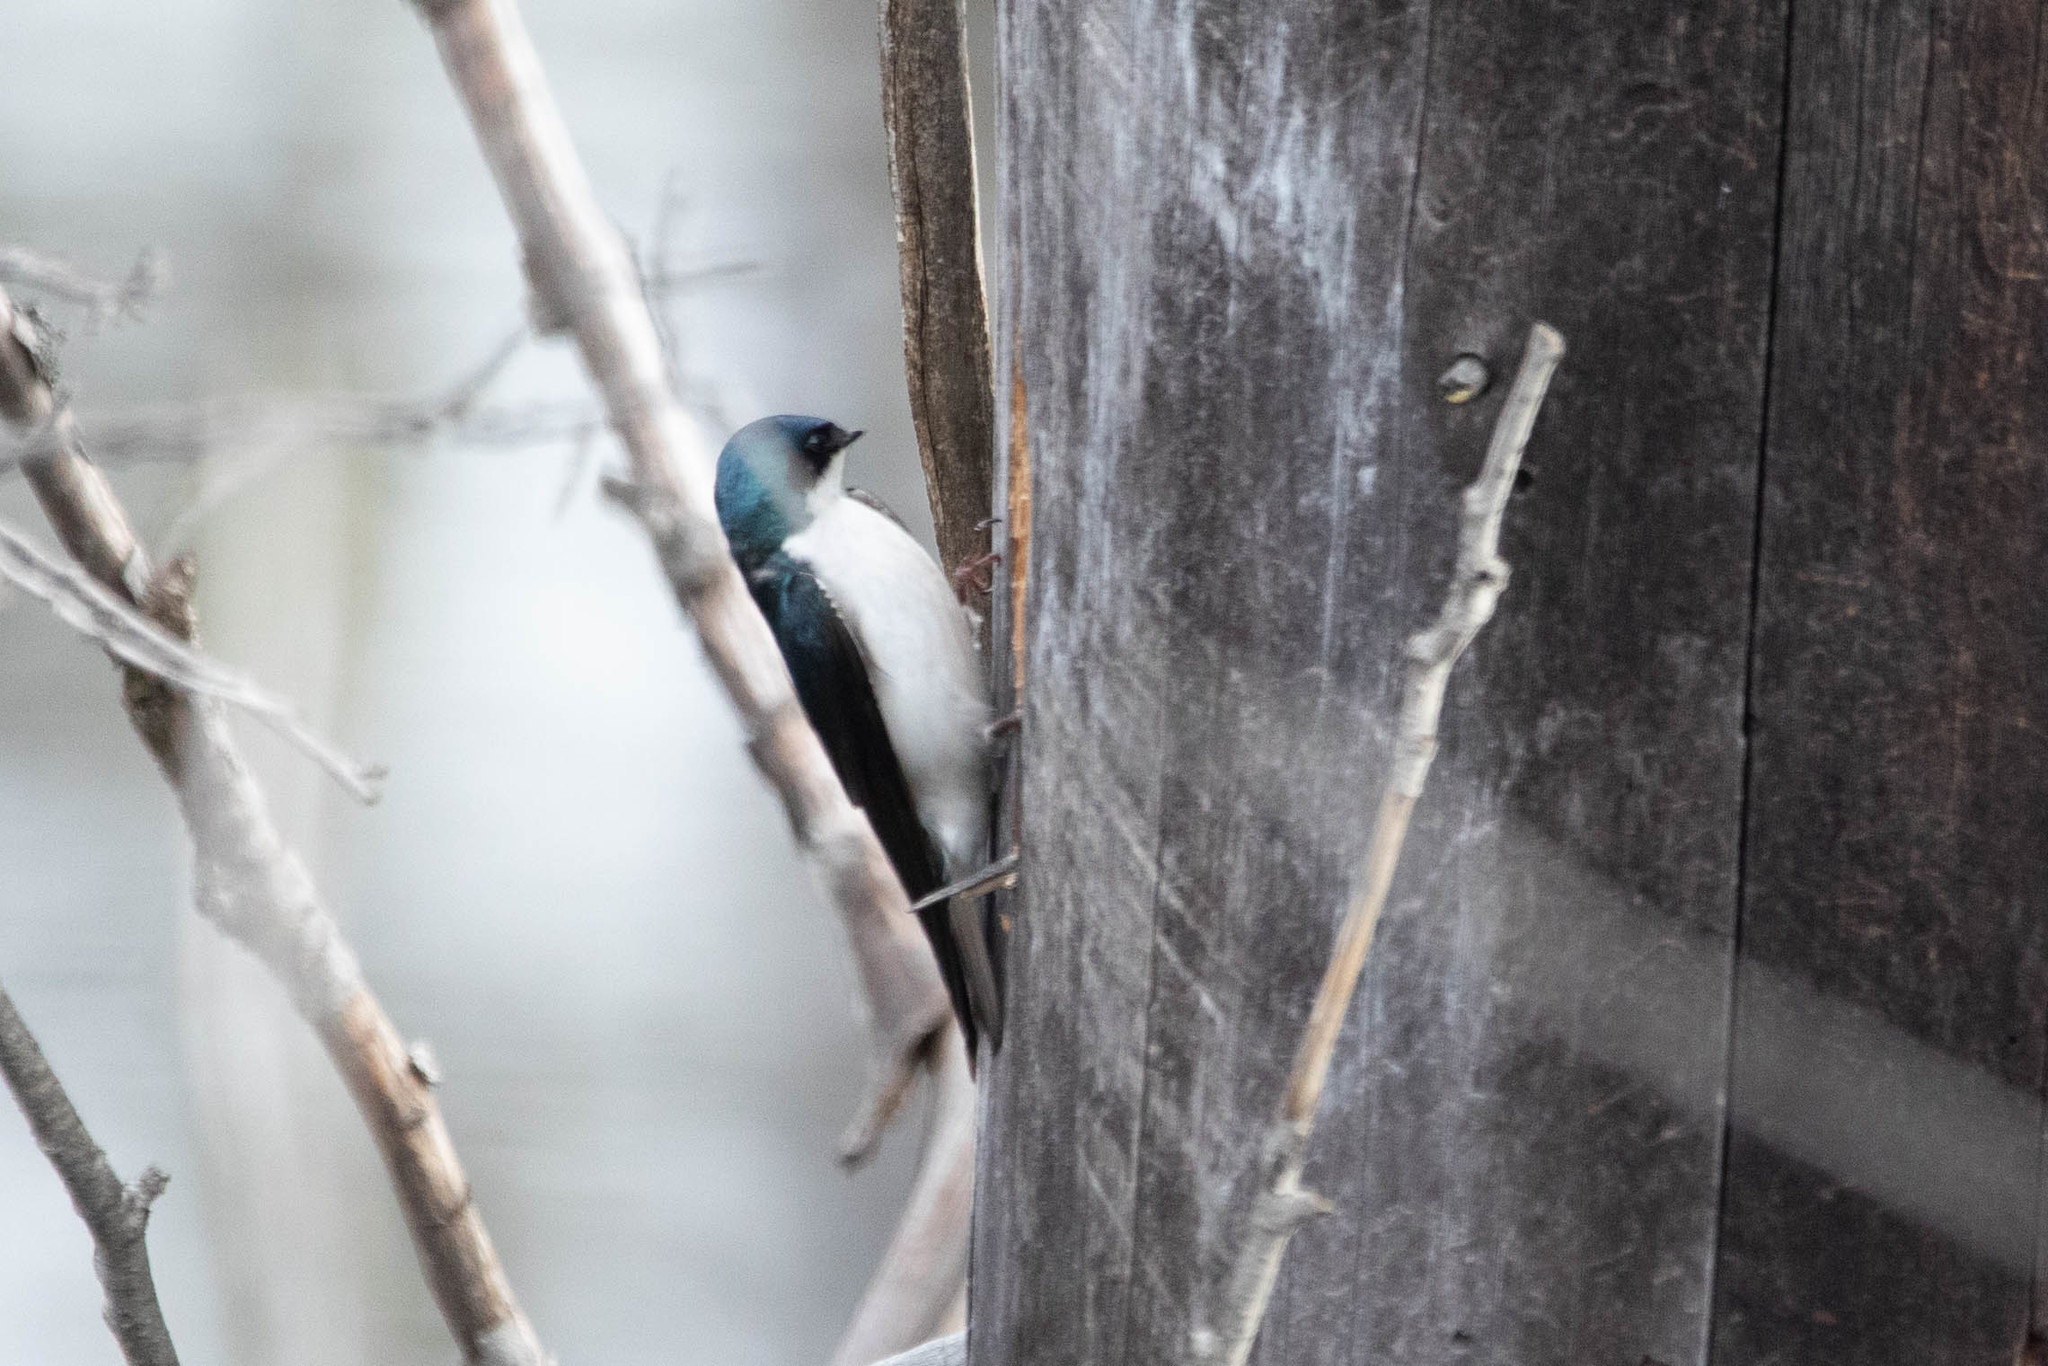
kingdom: Animalia
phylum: Chordata
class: Aves
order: Passeriformes
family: Hirundinidae
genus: Tachycineta
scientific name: Tachycineta bicolor
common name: Tree swallow
